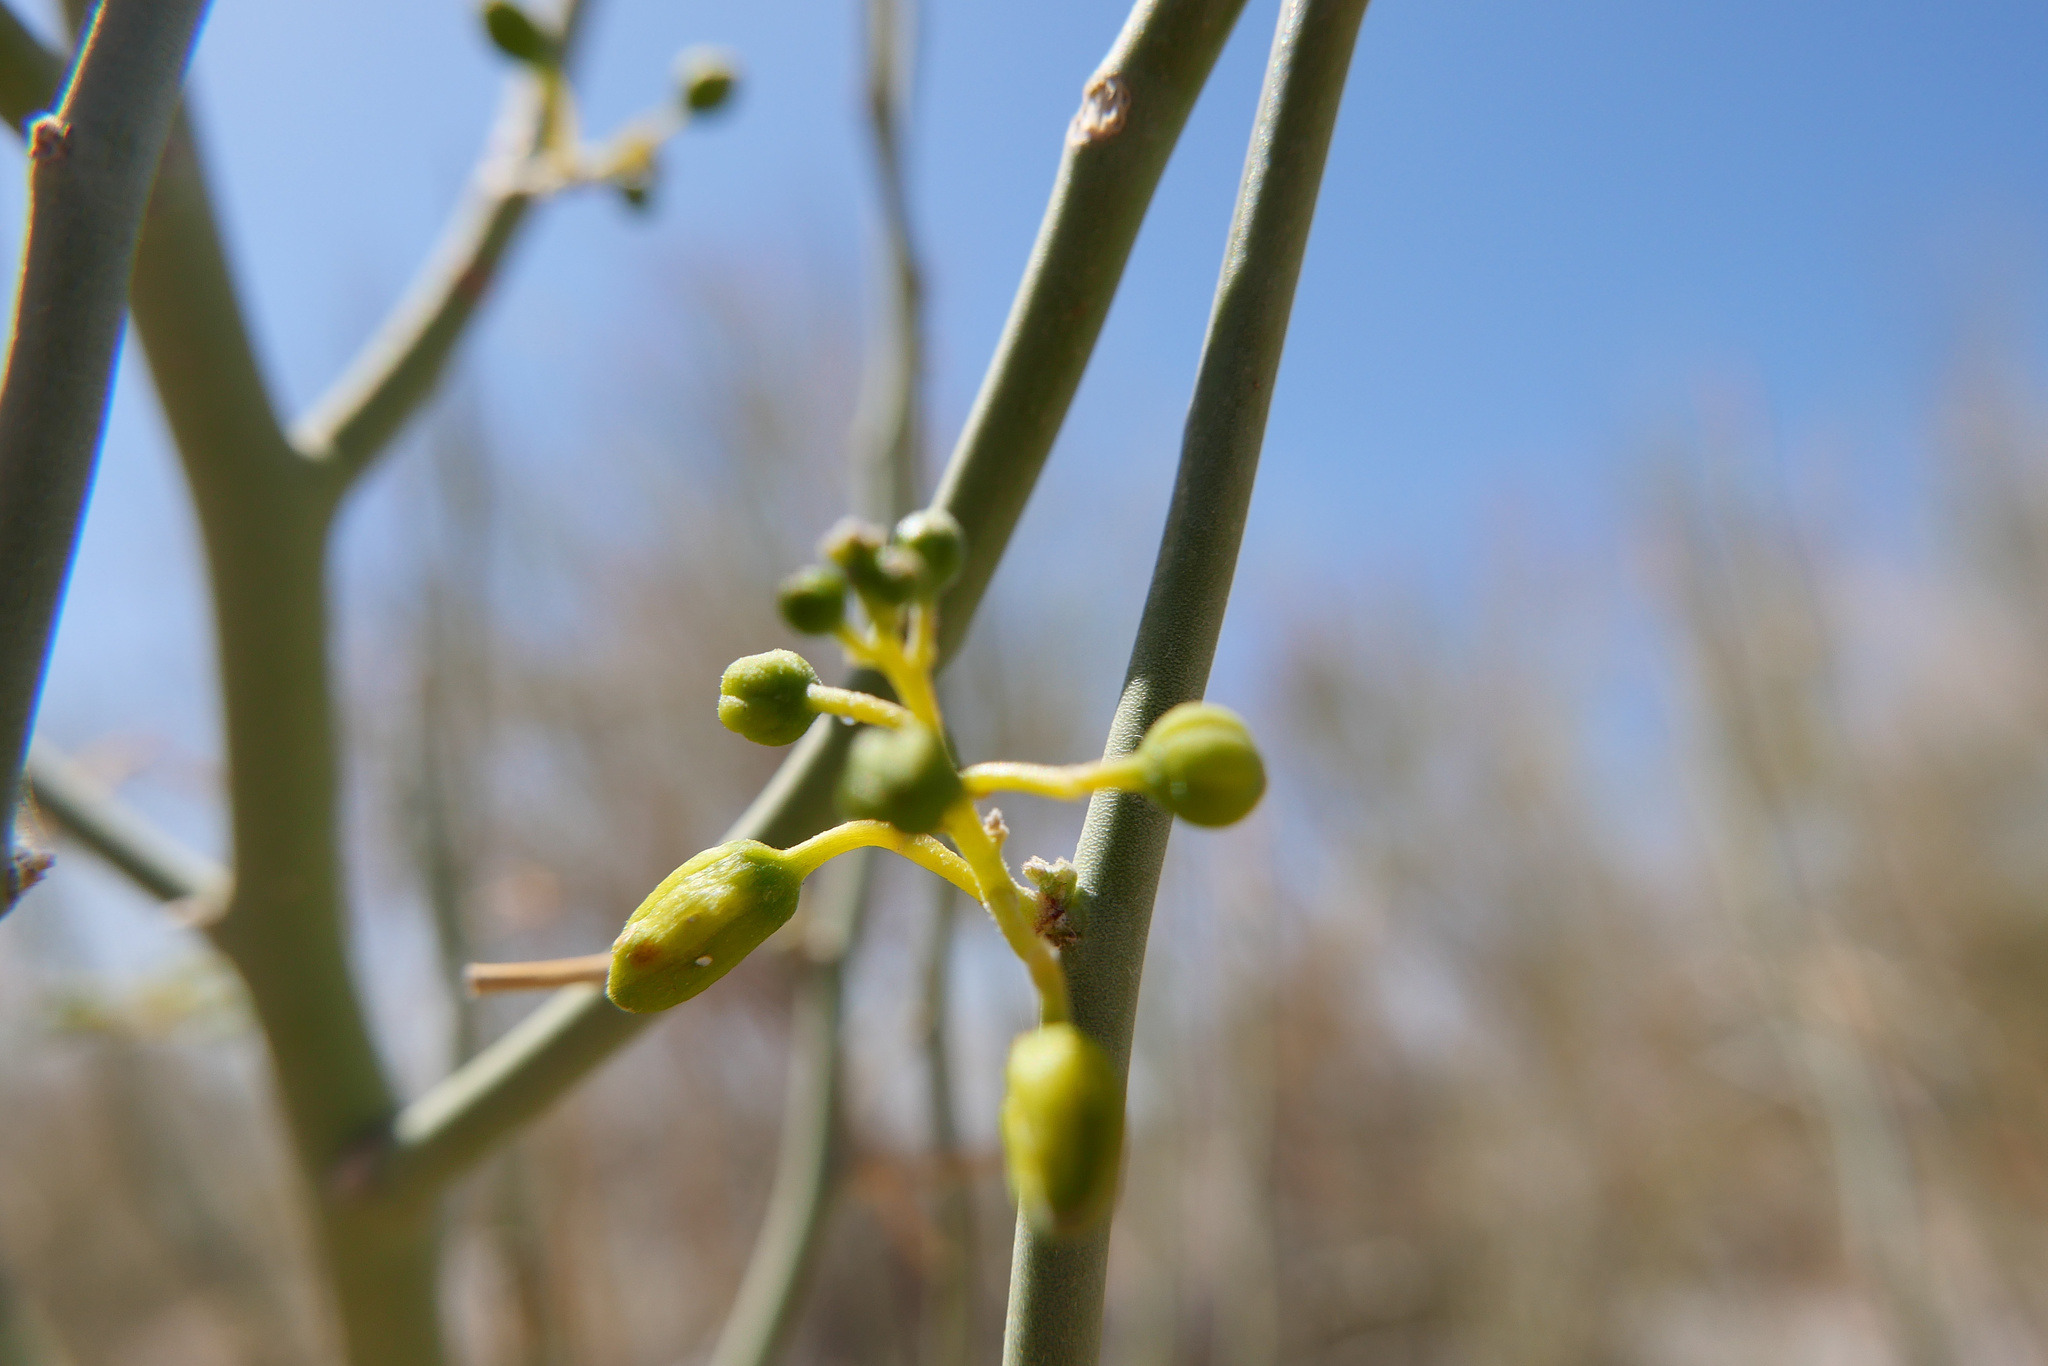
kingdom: Plantae
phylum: Tracheophyta
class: Magnoliopsida
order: Fabales
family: Fabaceae
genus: Parkinsonia
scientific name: Parkinsonia florida
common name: Blue paloverde
